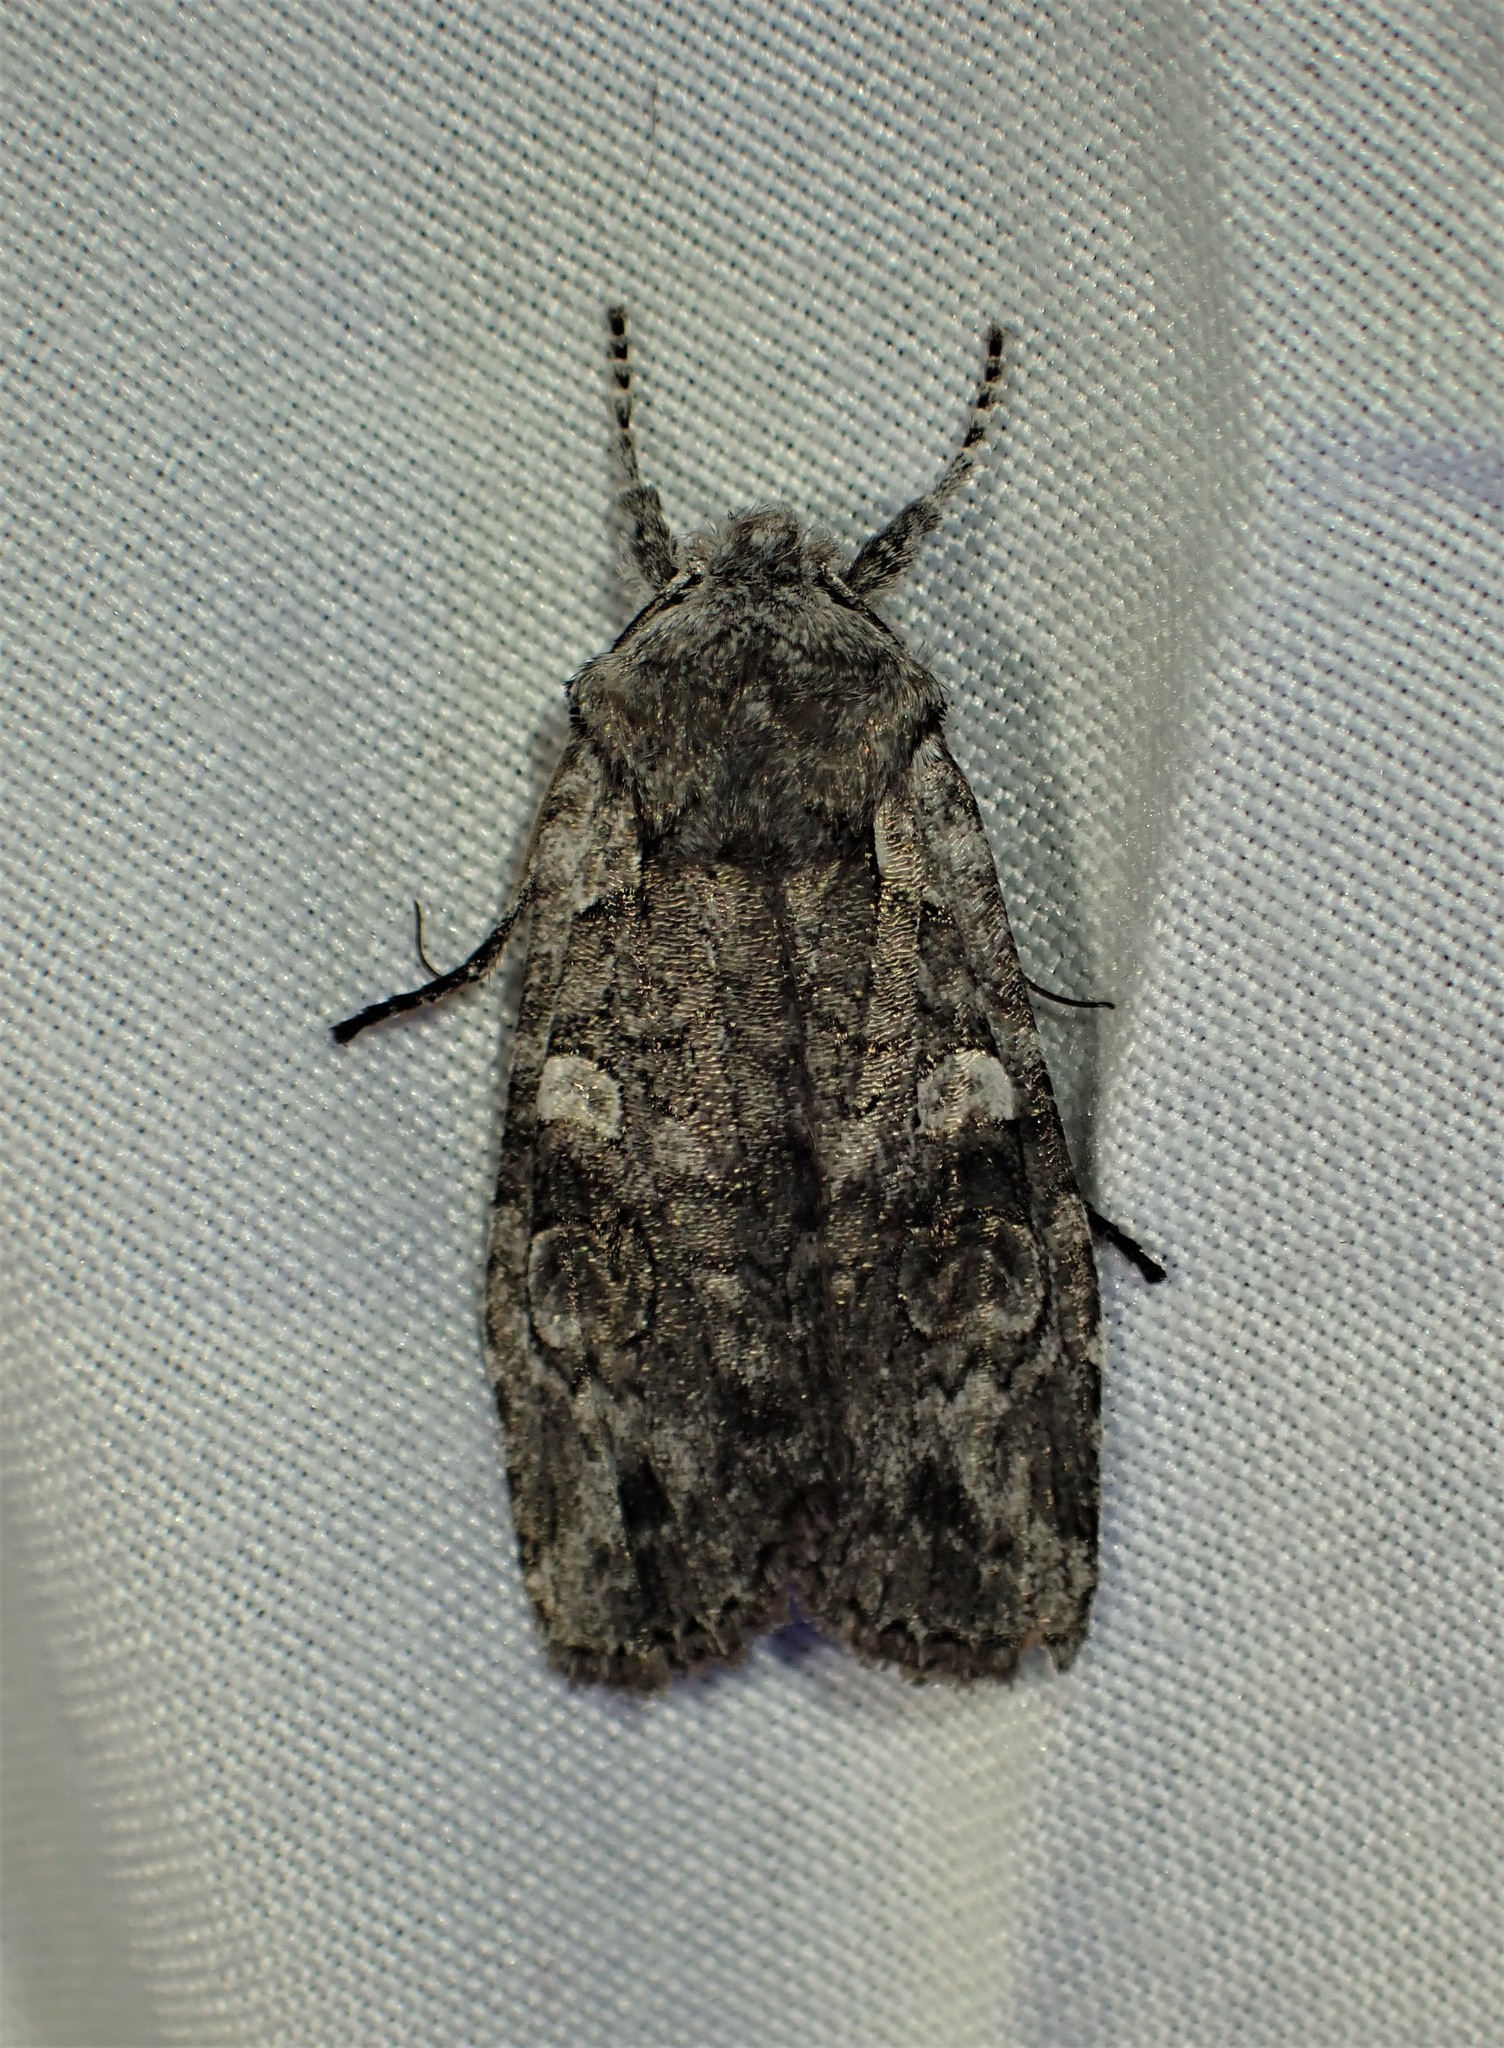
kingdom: Animalia
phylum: Arthropoda
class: Insecta
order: Lepidoptera
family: Noctuidae
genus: Lithophane
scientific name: Lithophane tepida
